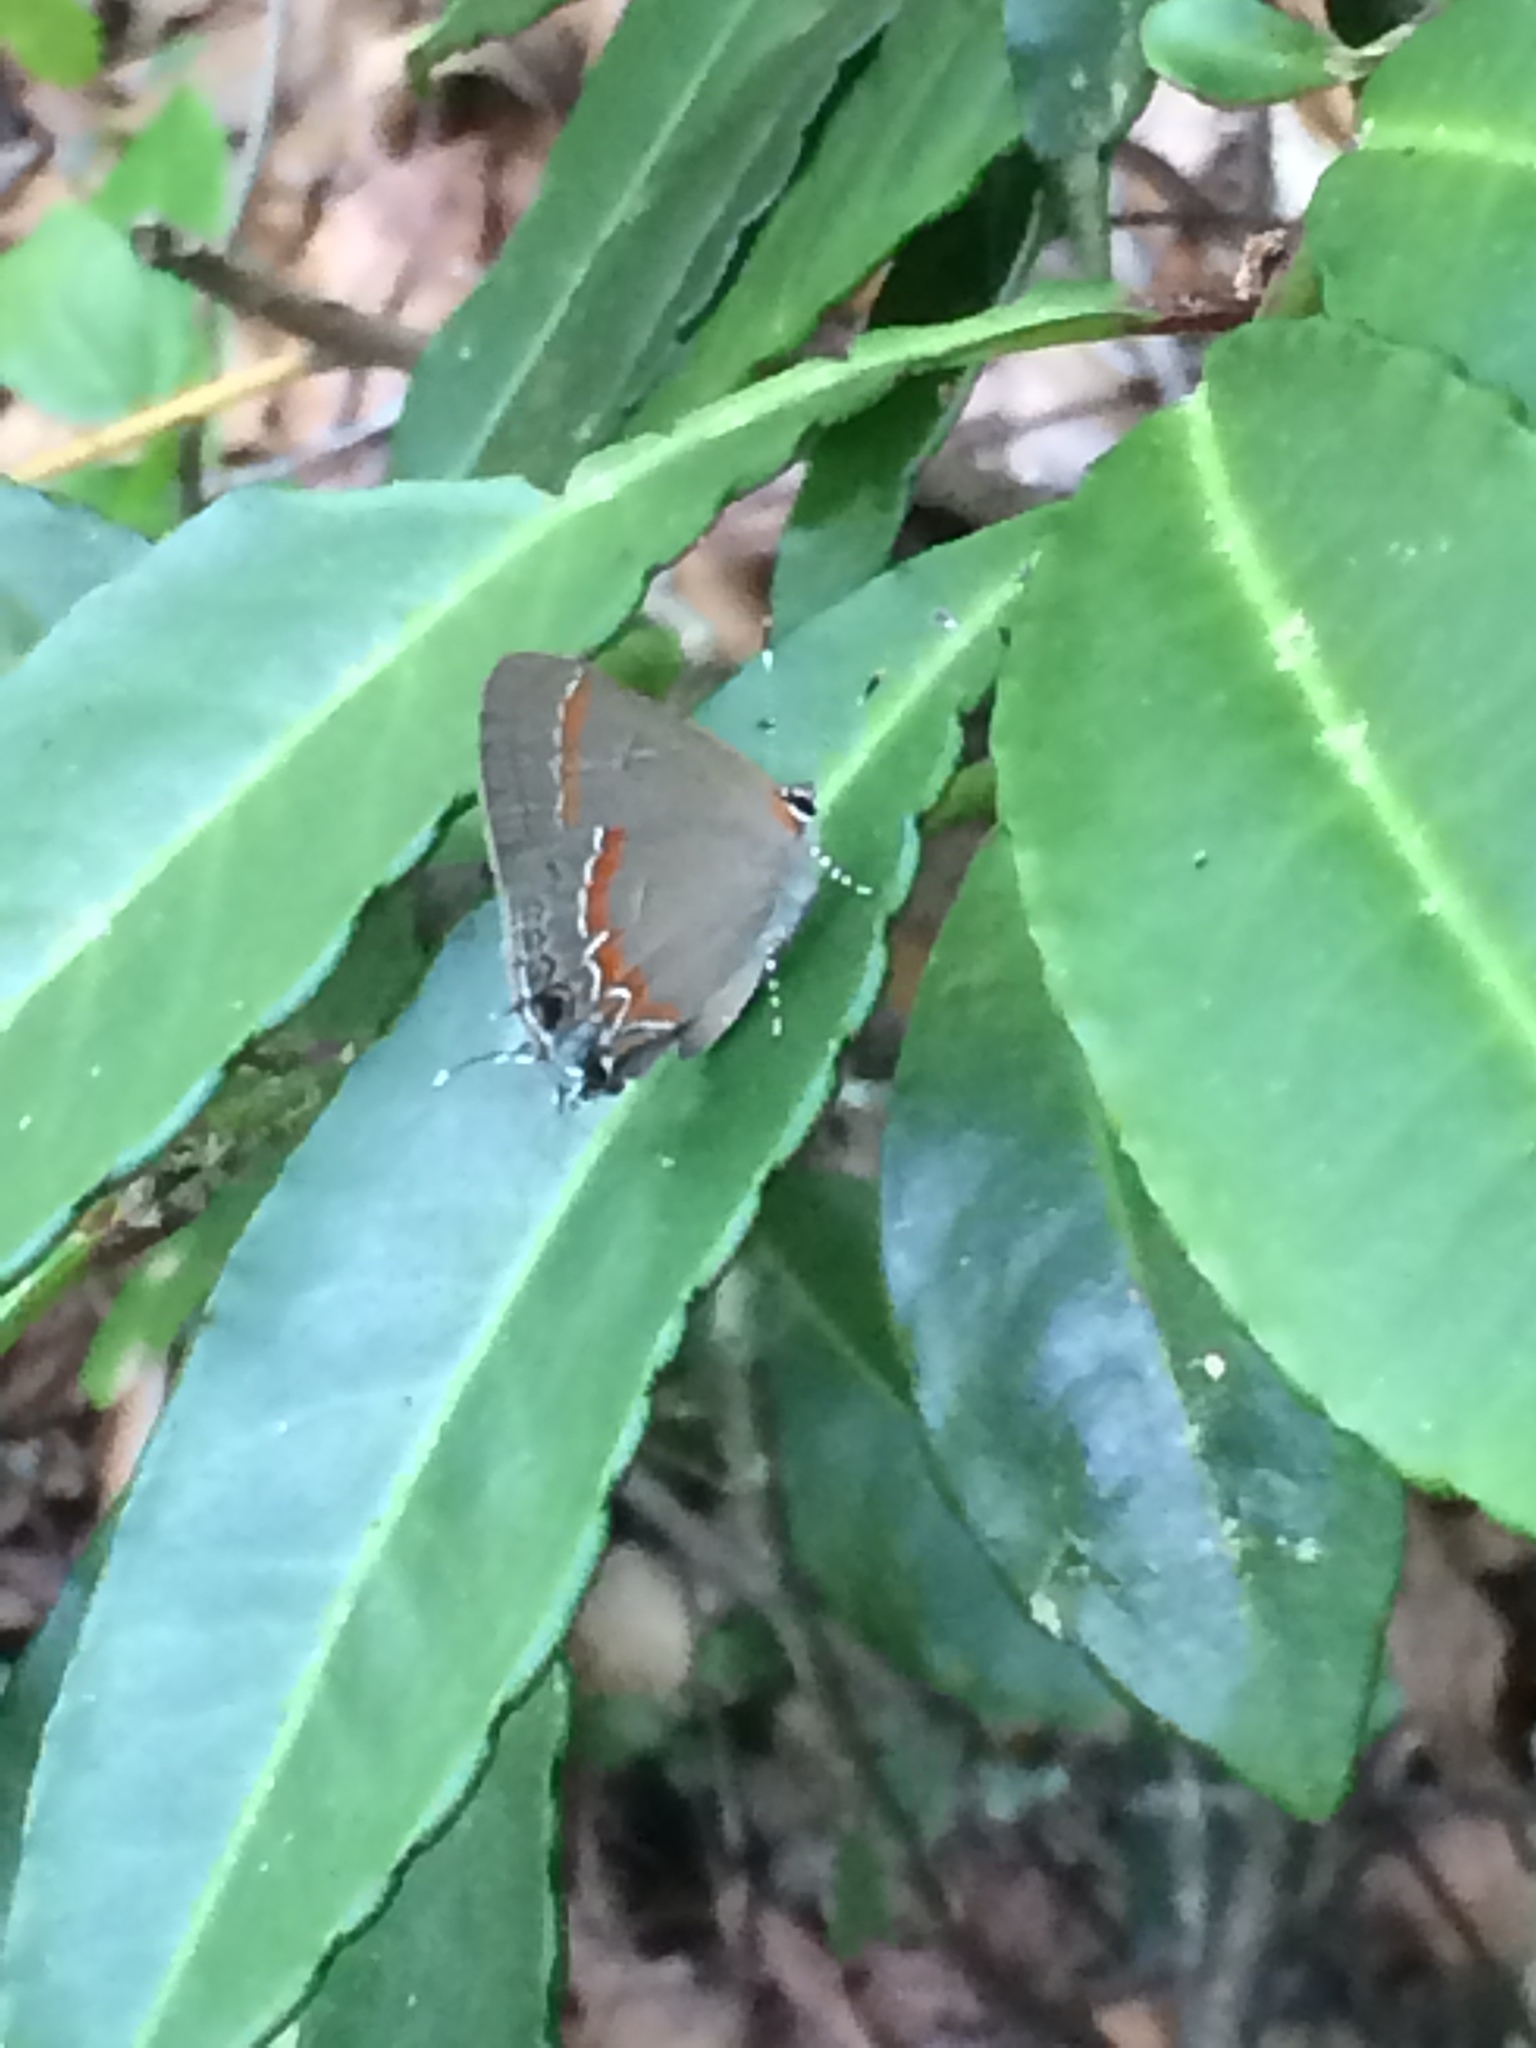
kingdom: Animalia
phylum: Arthropoda
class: Insecta
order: Lepidoptera
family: Lycaenidae
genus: Calycopis
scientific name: Calycopis cecrops
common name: Red-banded hairstreak
